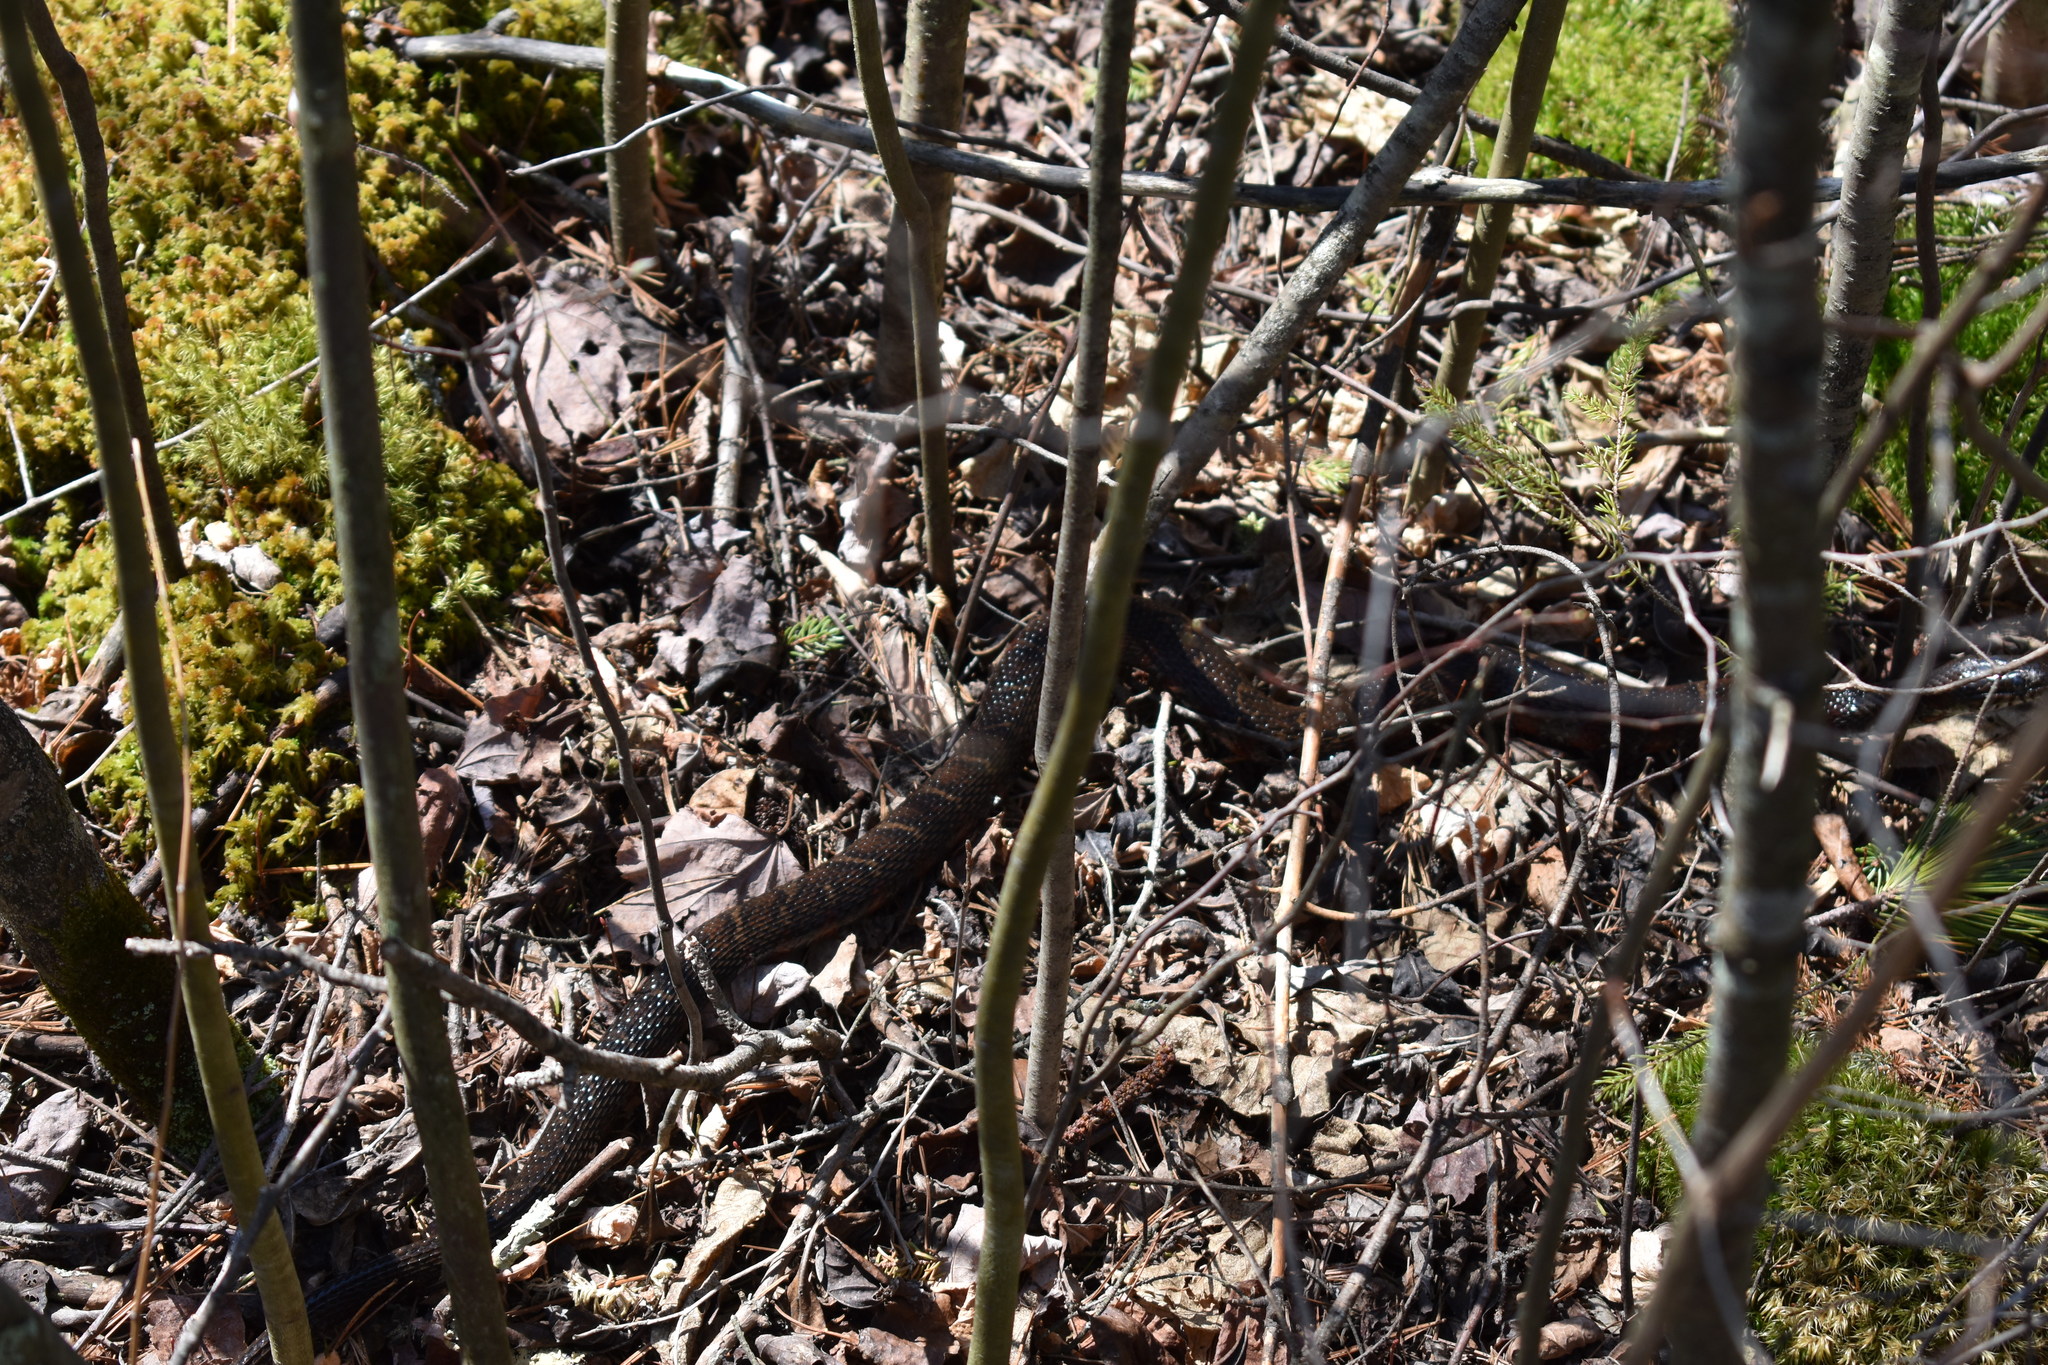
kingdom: Animalia
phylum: Chordata
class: Squamata
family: Colubridae
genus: Nerodia
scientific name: Nerodia sipedon
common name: Northern water snake
